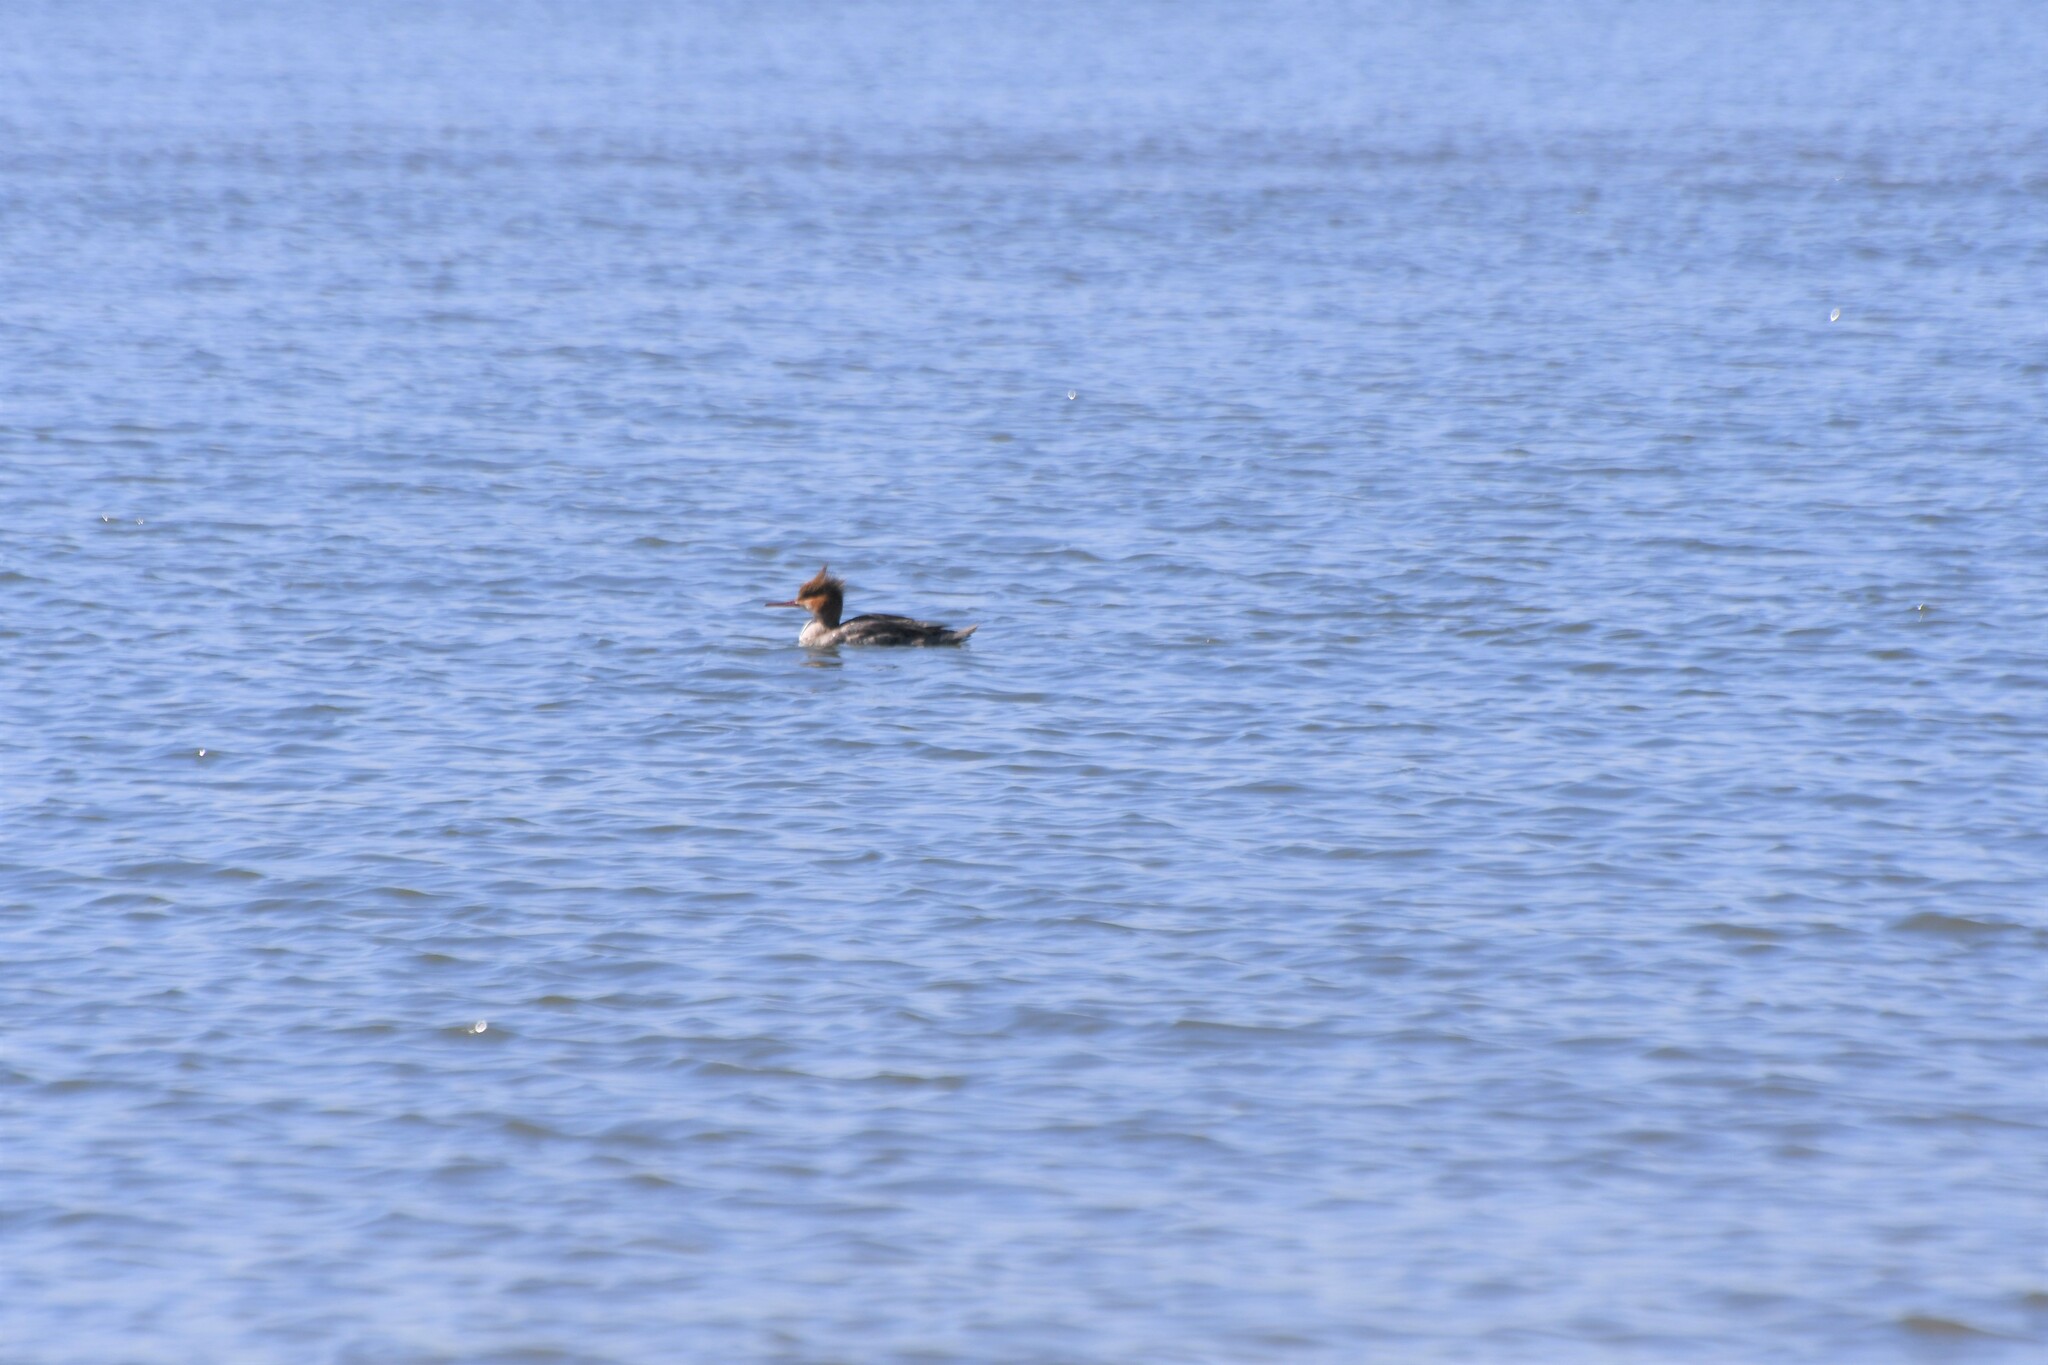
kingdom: Animalia
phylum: Chordata
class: Aves
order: Anseriformes
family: Anatidae
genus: Mergus
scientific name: Mergus serrator
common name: Red-breasted merganser
